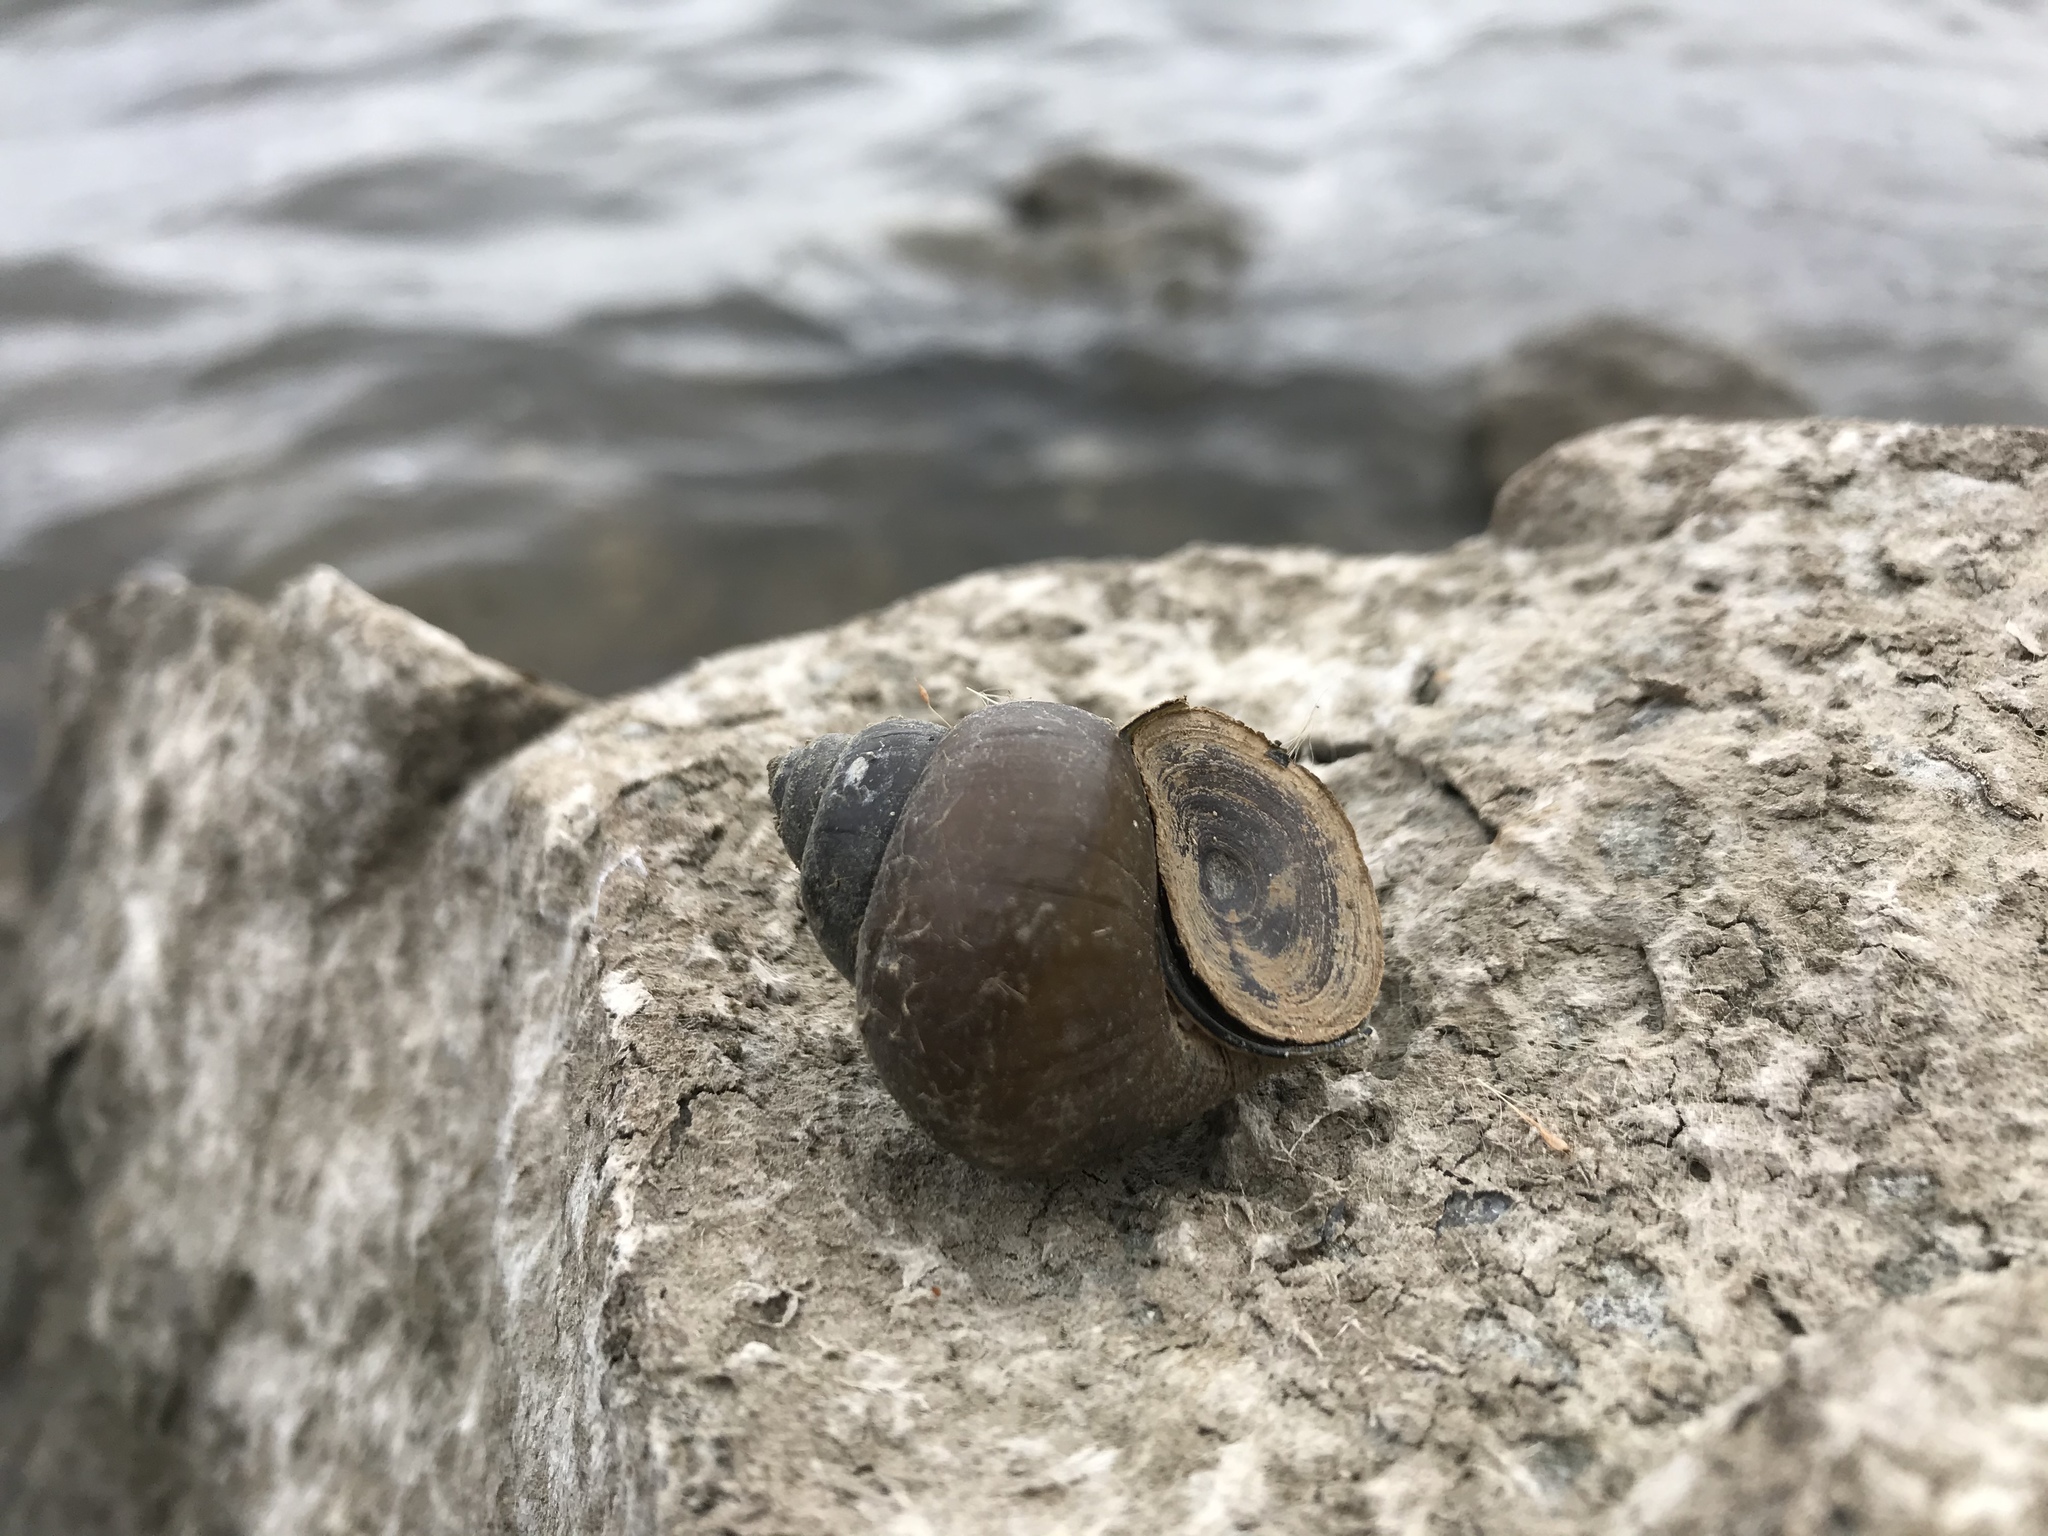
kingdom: Animalia
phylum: Mollusca
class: Gastropoda
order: Architaenioglossa
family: Viviparidae
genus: Cipangopaludina
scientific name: Cipangopaludina chinensis
